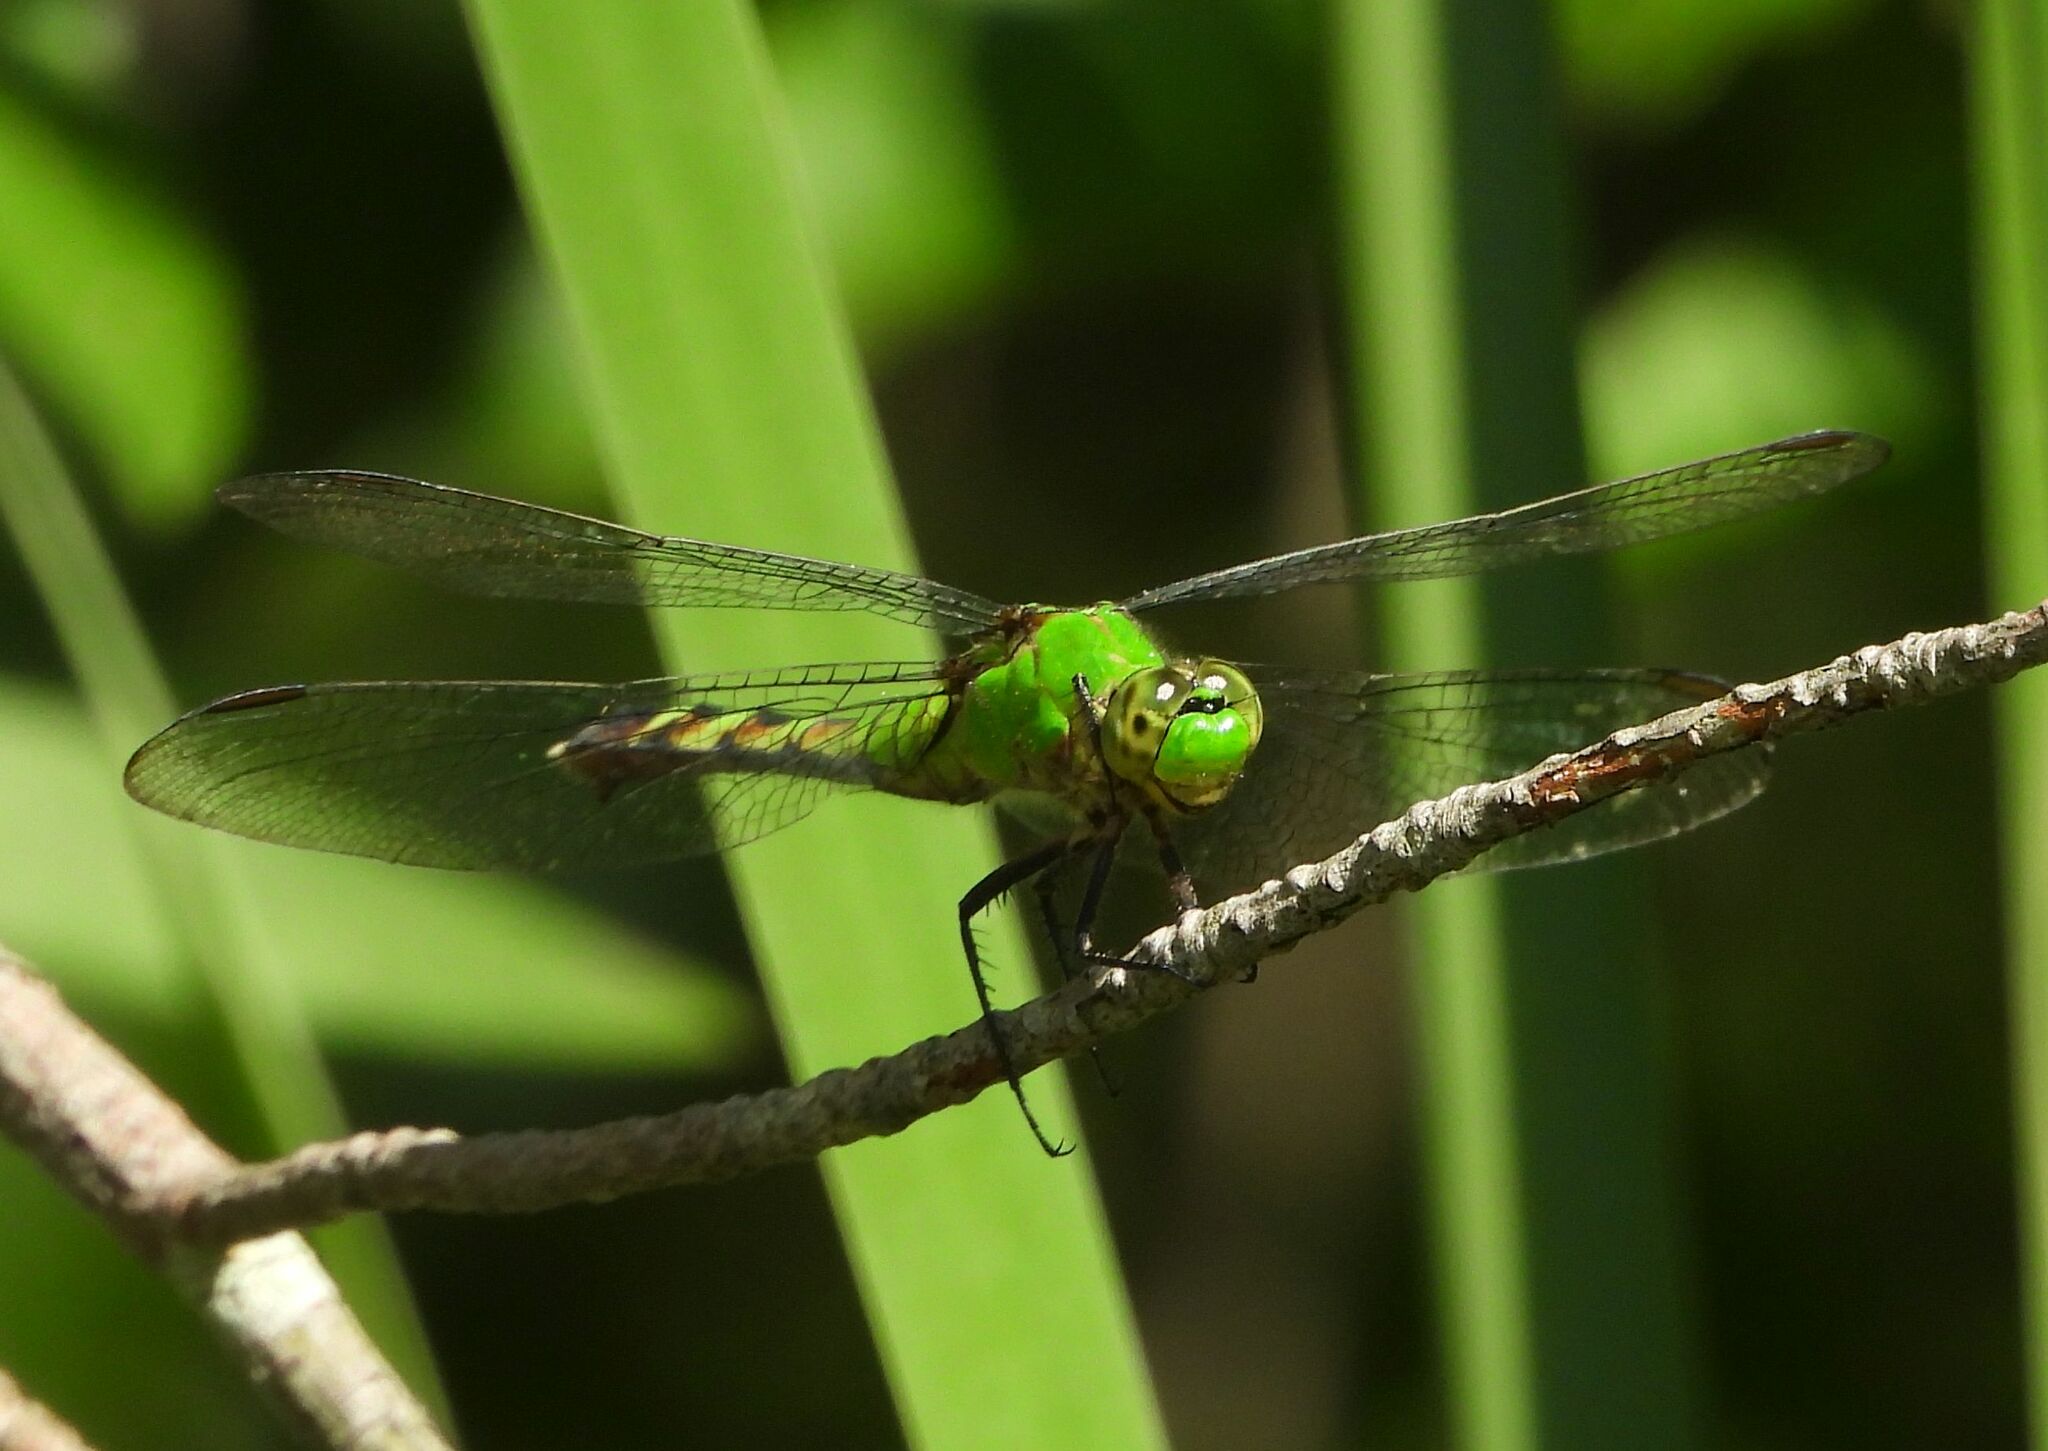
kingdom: Animalia
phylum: Arthropoda
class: Insecta
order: Odonata
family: Libellulidae
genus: Erythemis
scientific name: Erythemis simplicicollis
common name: Eastern pondhawk
